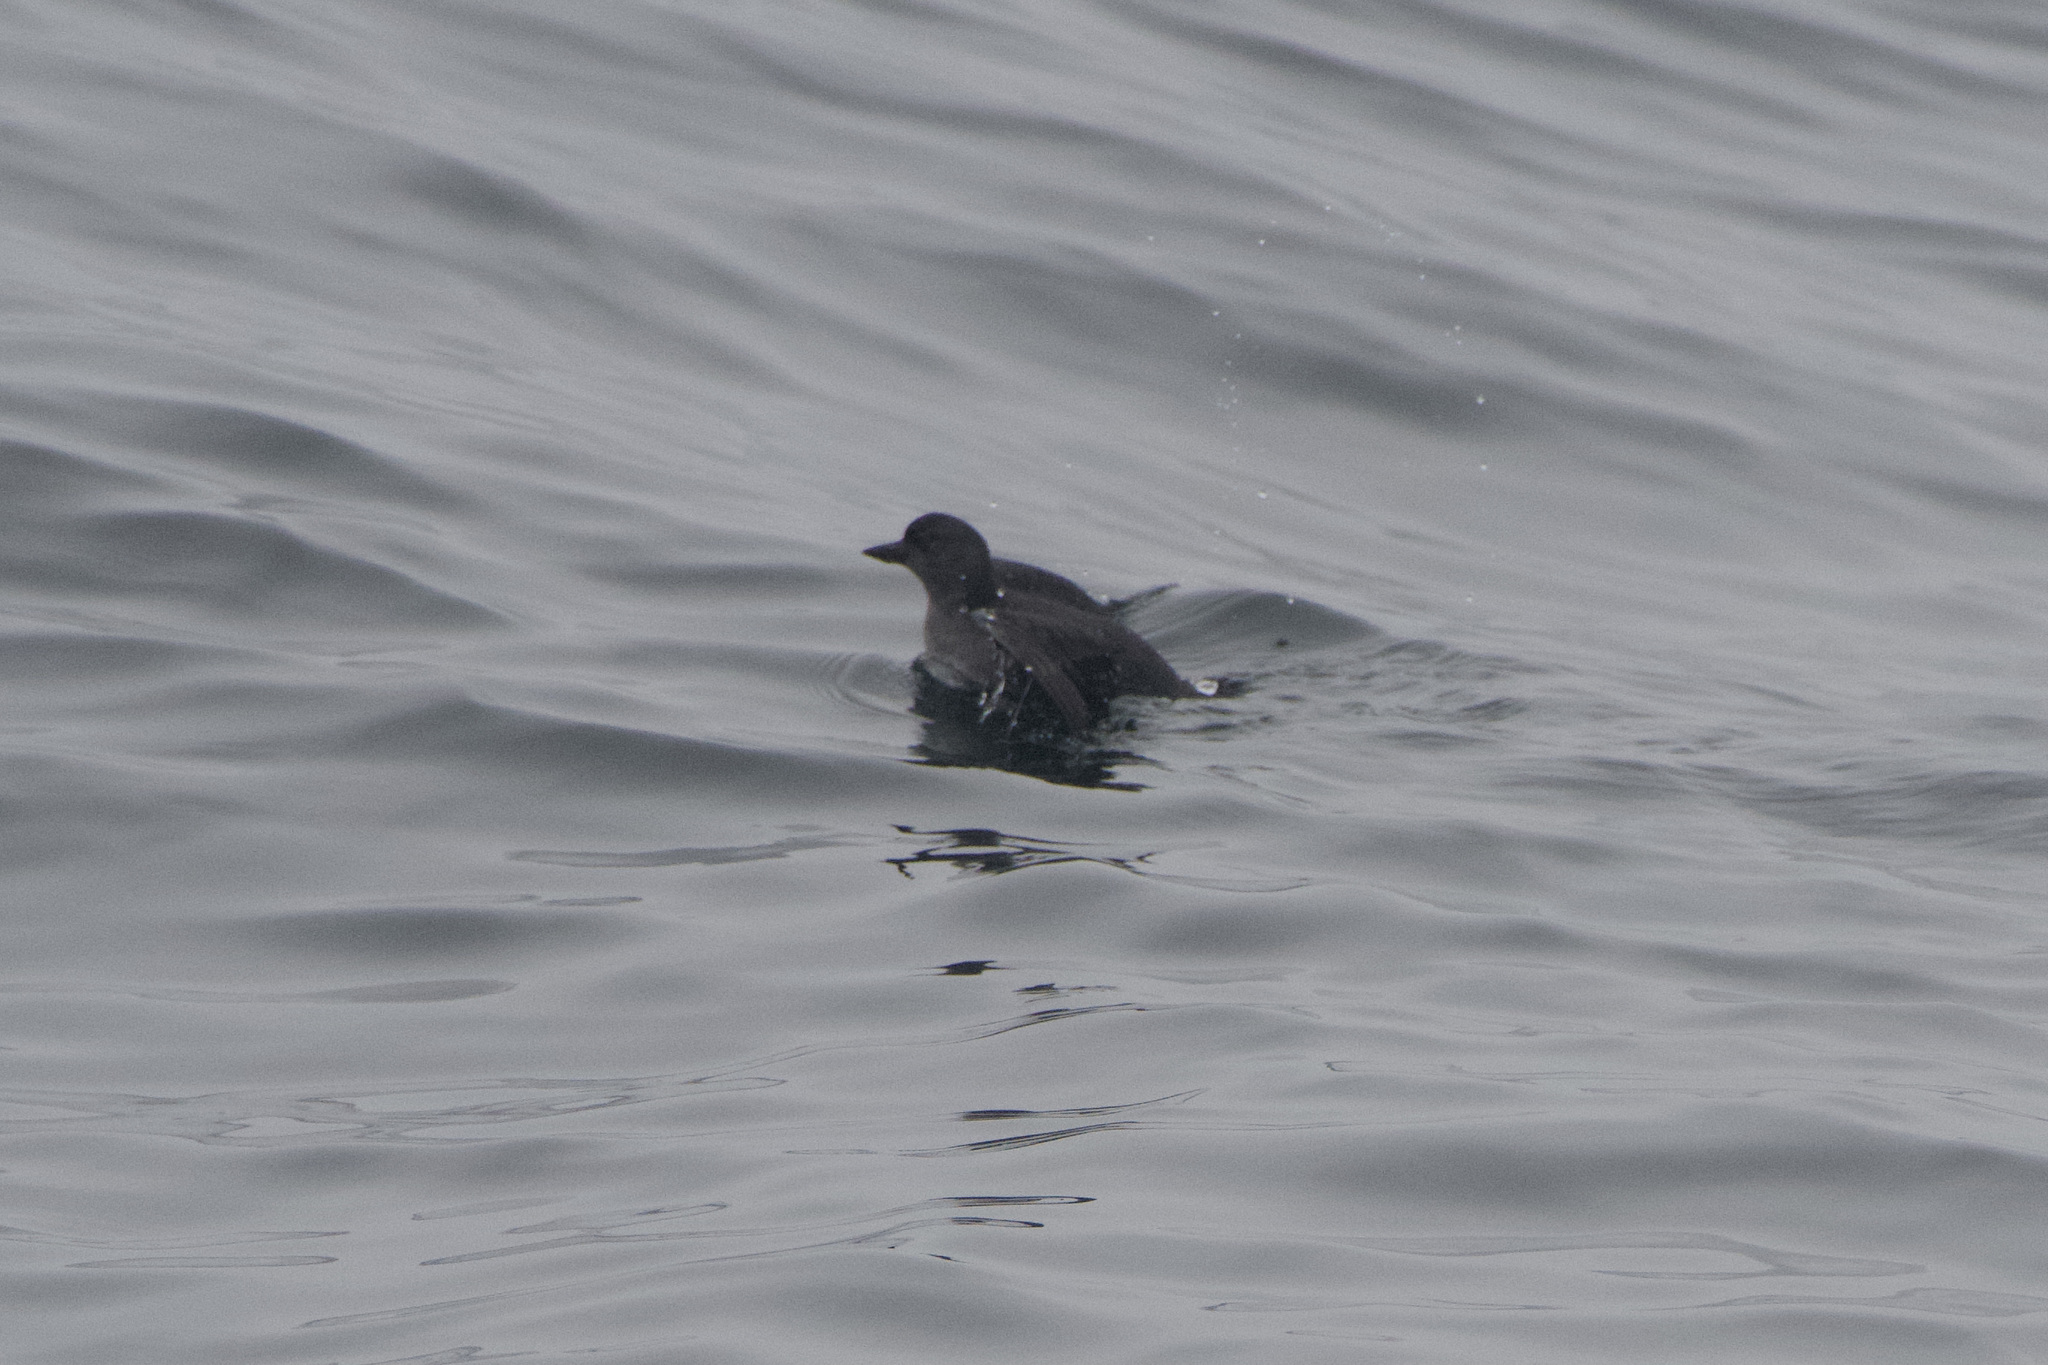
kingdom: Animalia
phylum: Chordata
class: Aves
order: Charadriiformes
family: Alcidae
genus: Ptychoramphus
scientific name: Ptychoramphus aleuticus
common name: Cassin's auklet
